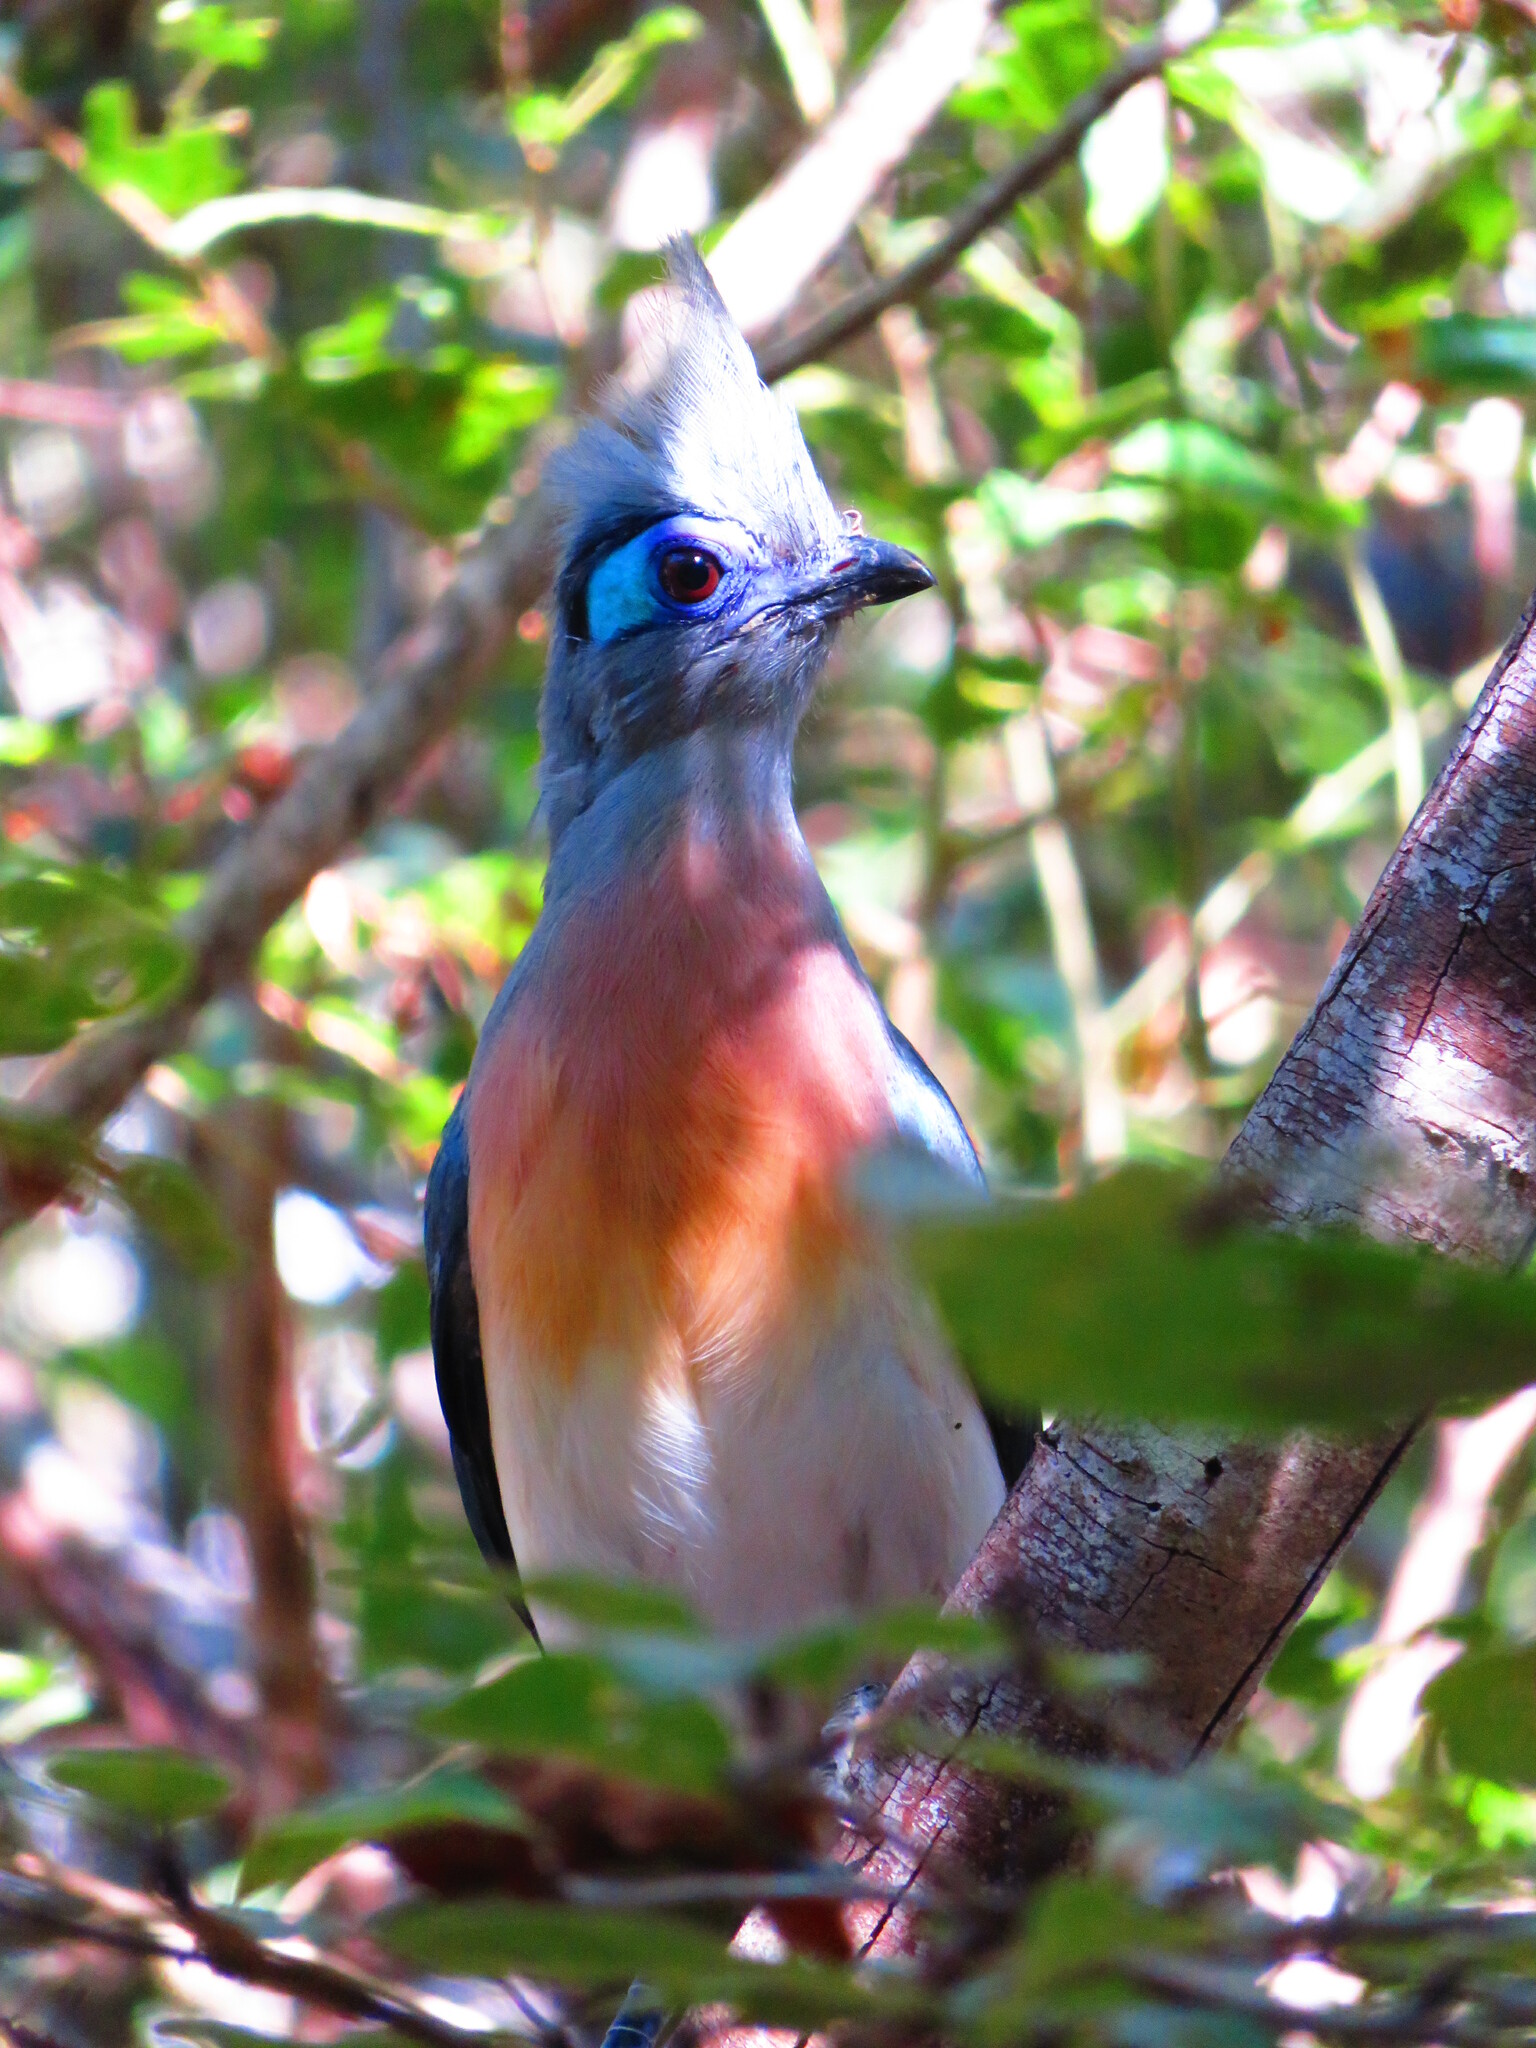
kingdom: Animalia
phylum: Chordata
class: Aves
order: Cuculiformes
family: Cuculidae
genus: Coua
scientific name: Coua cristata
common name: Crested coua
